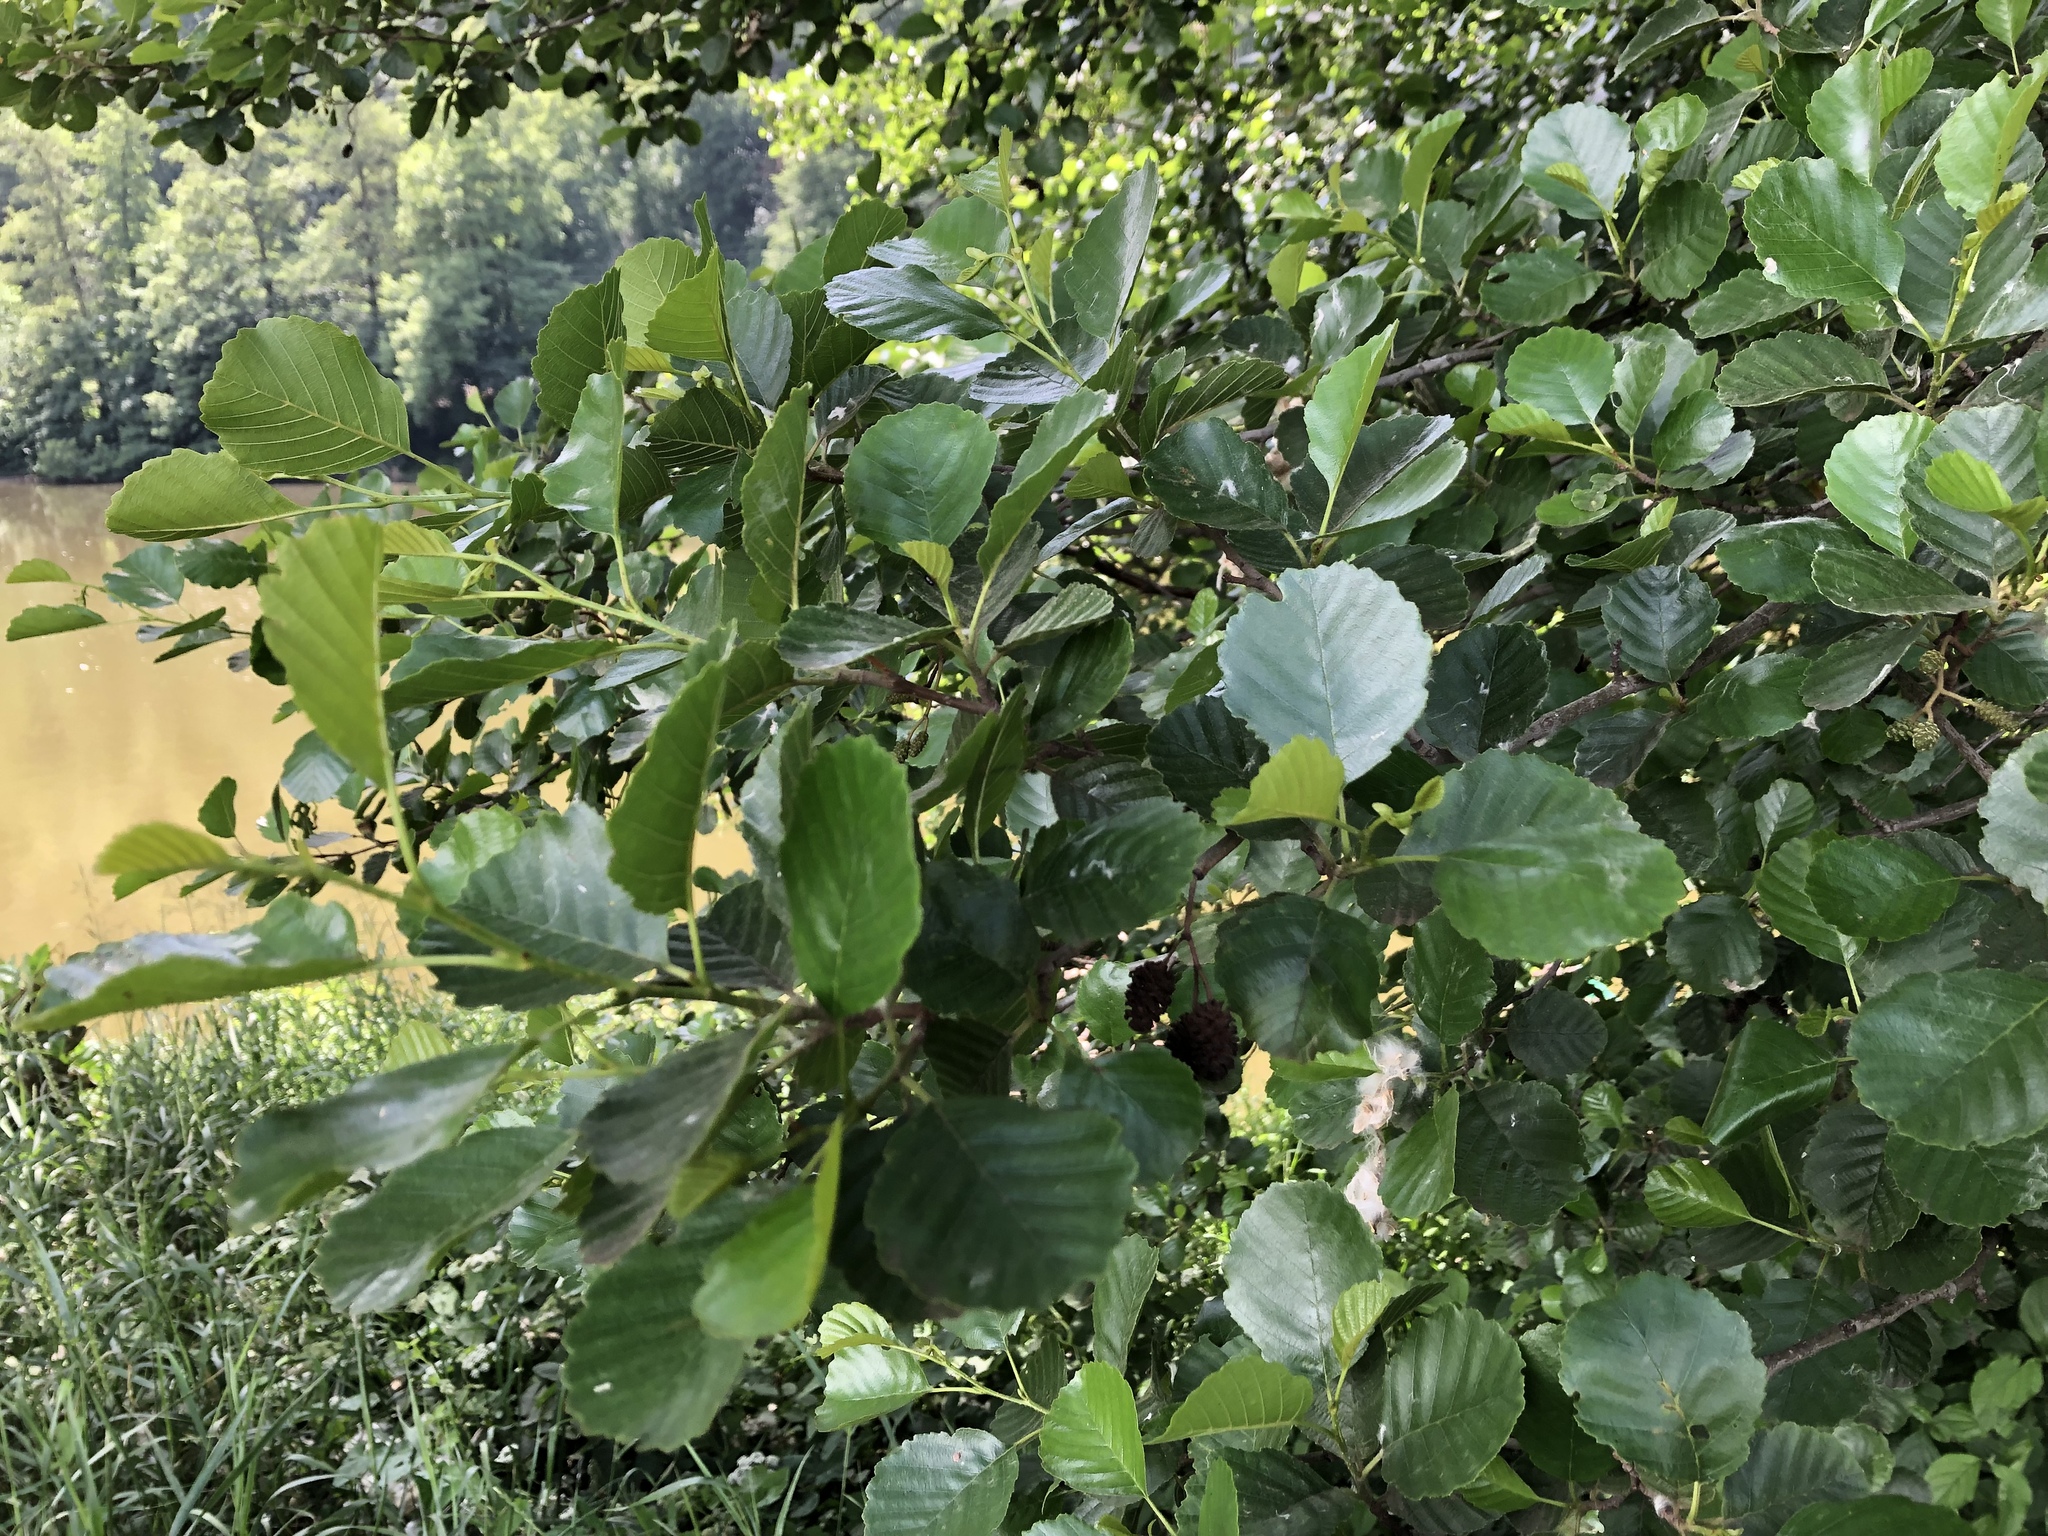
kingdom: Plantae
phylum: Tracheophyta
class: Magnoliopsida
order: Fagales
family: Betulaceae
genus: Alnus
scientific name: Alnus glutinosa
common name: Black alder
